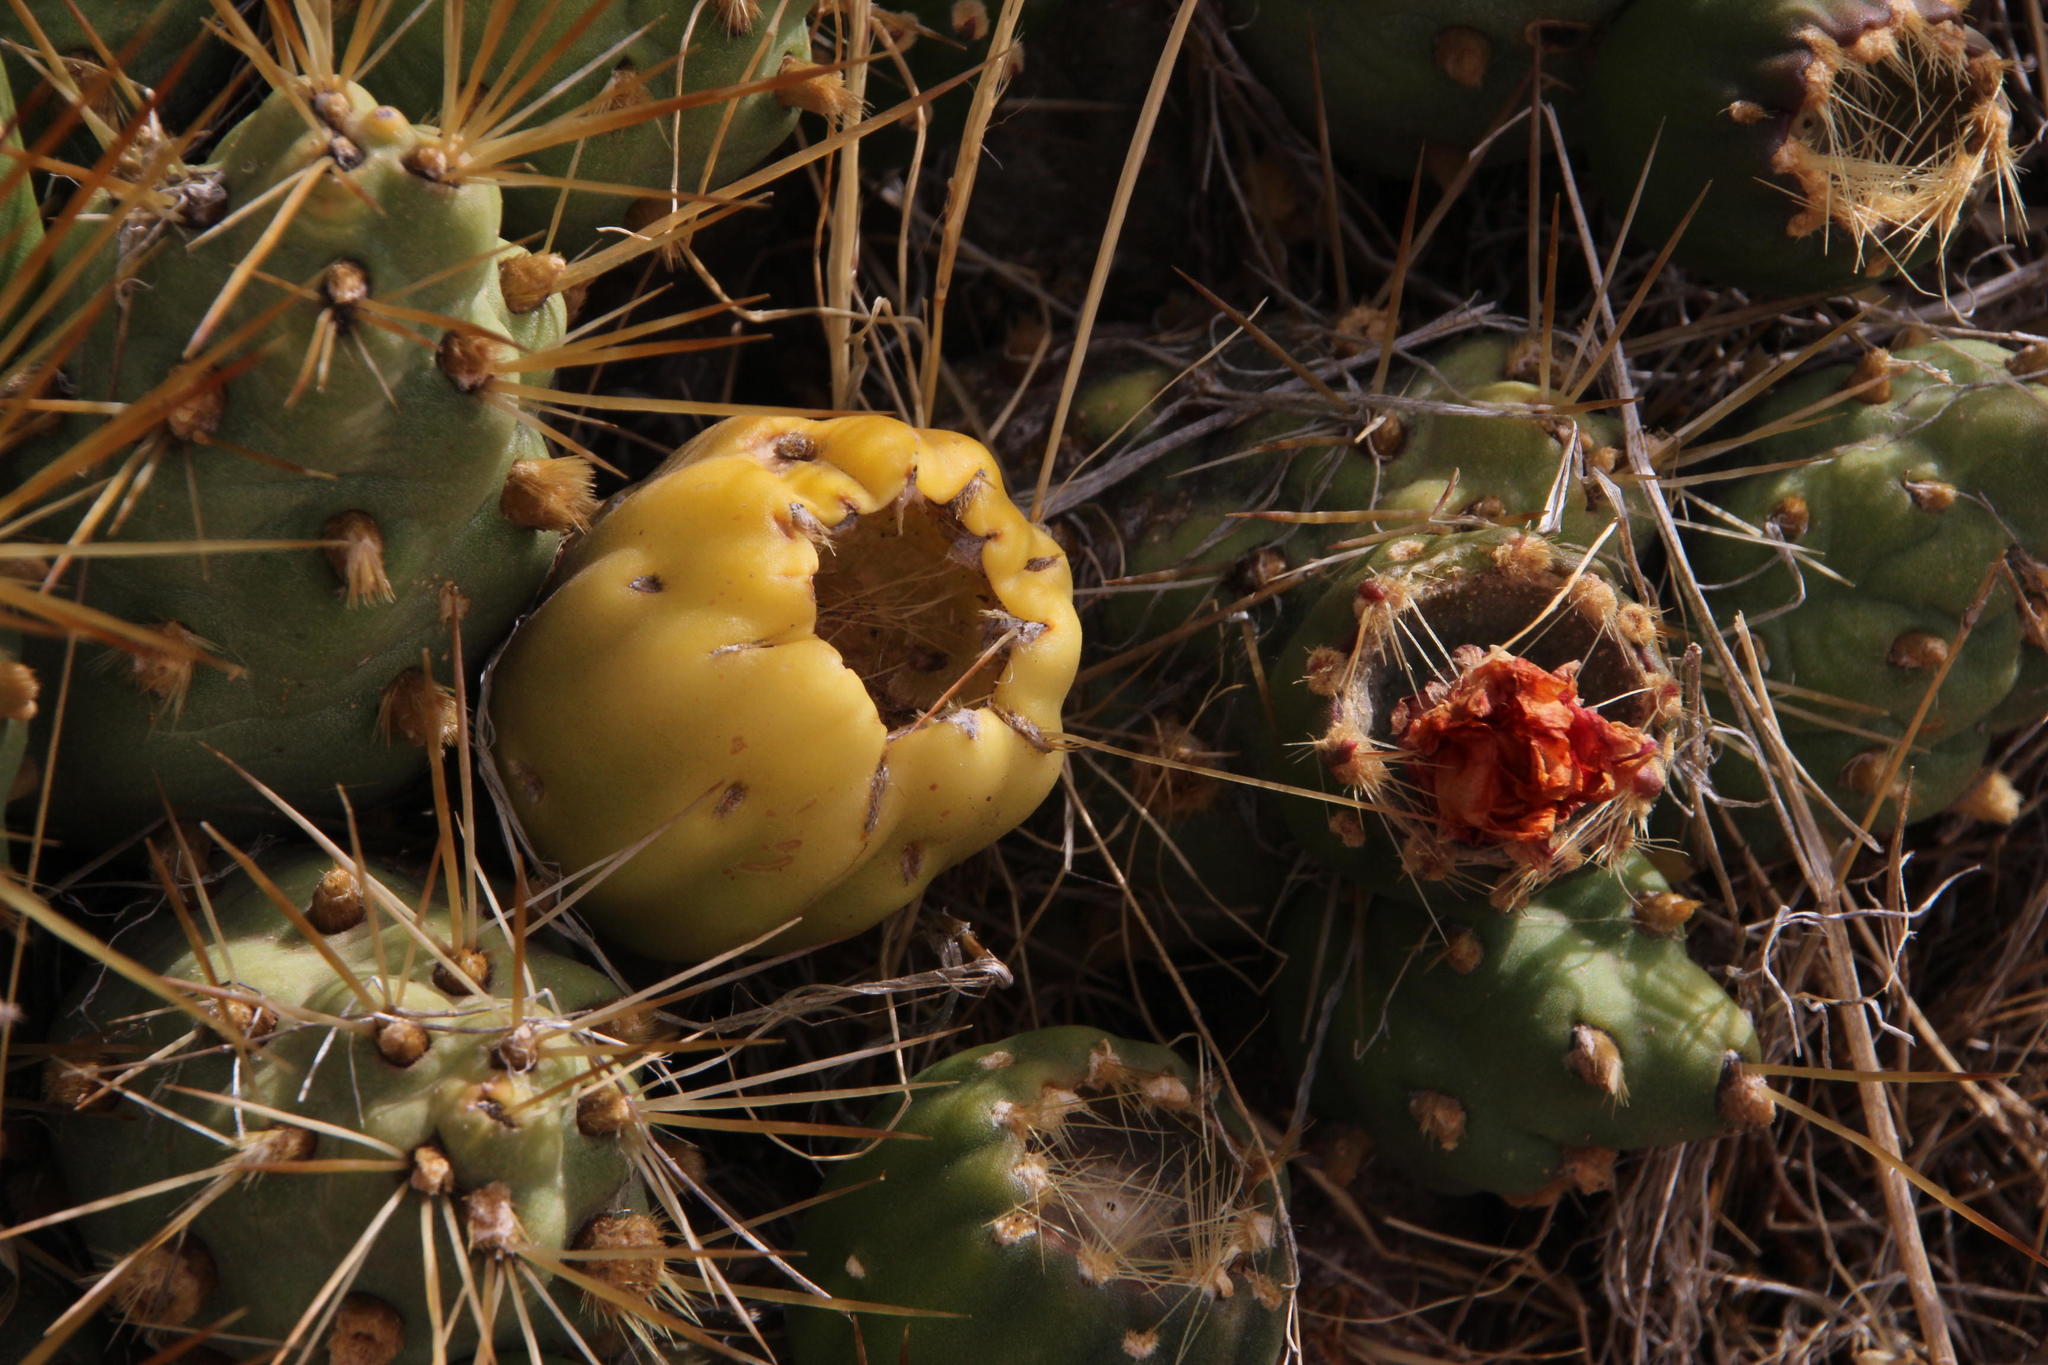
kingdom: Plantae
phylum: Tracheophyta
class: Magnoliopsida
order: Caryophyllales
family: Cactaceae
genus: Cumulopuntia
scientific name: Cumulopuntia boliviana
